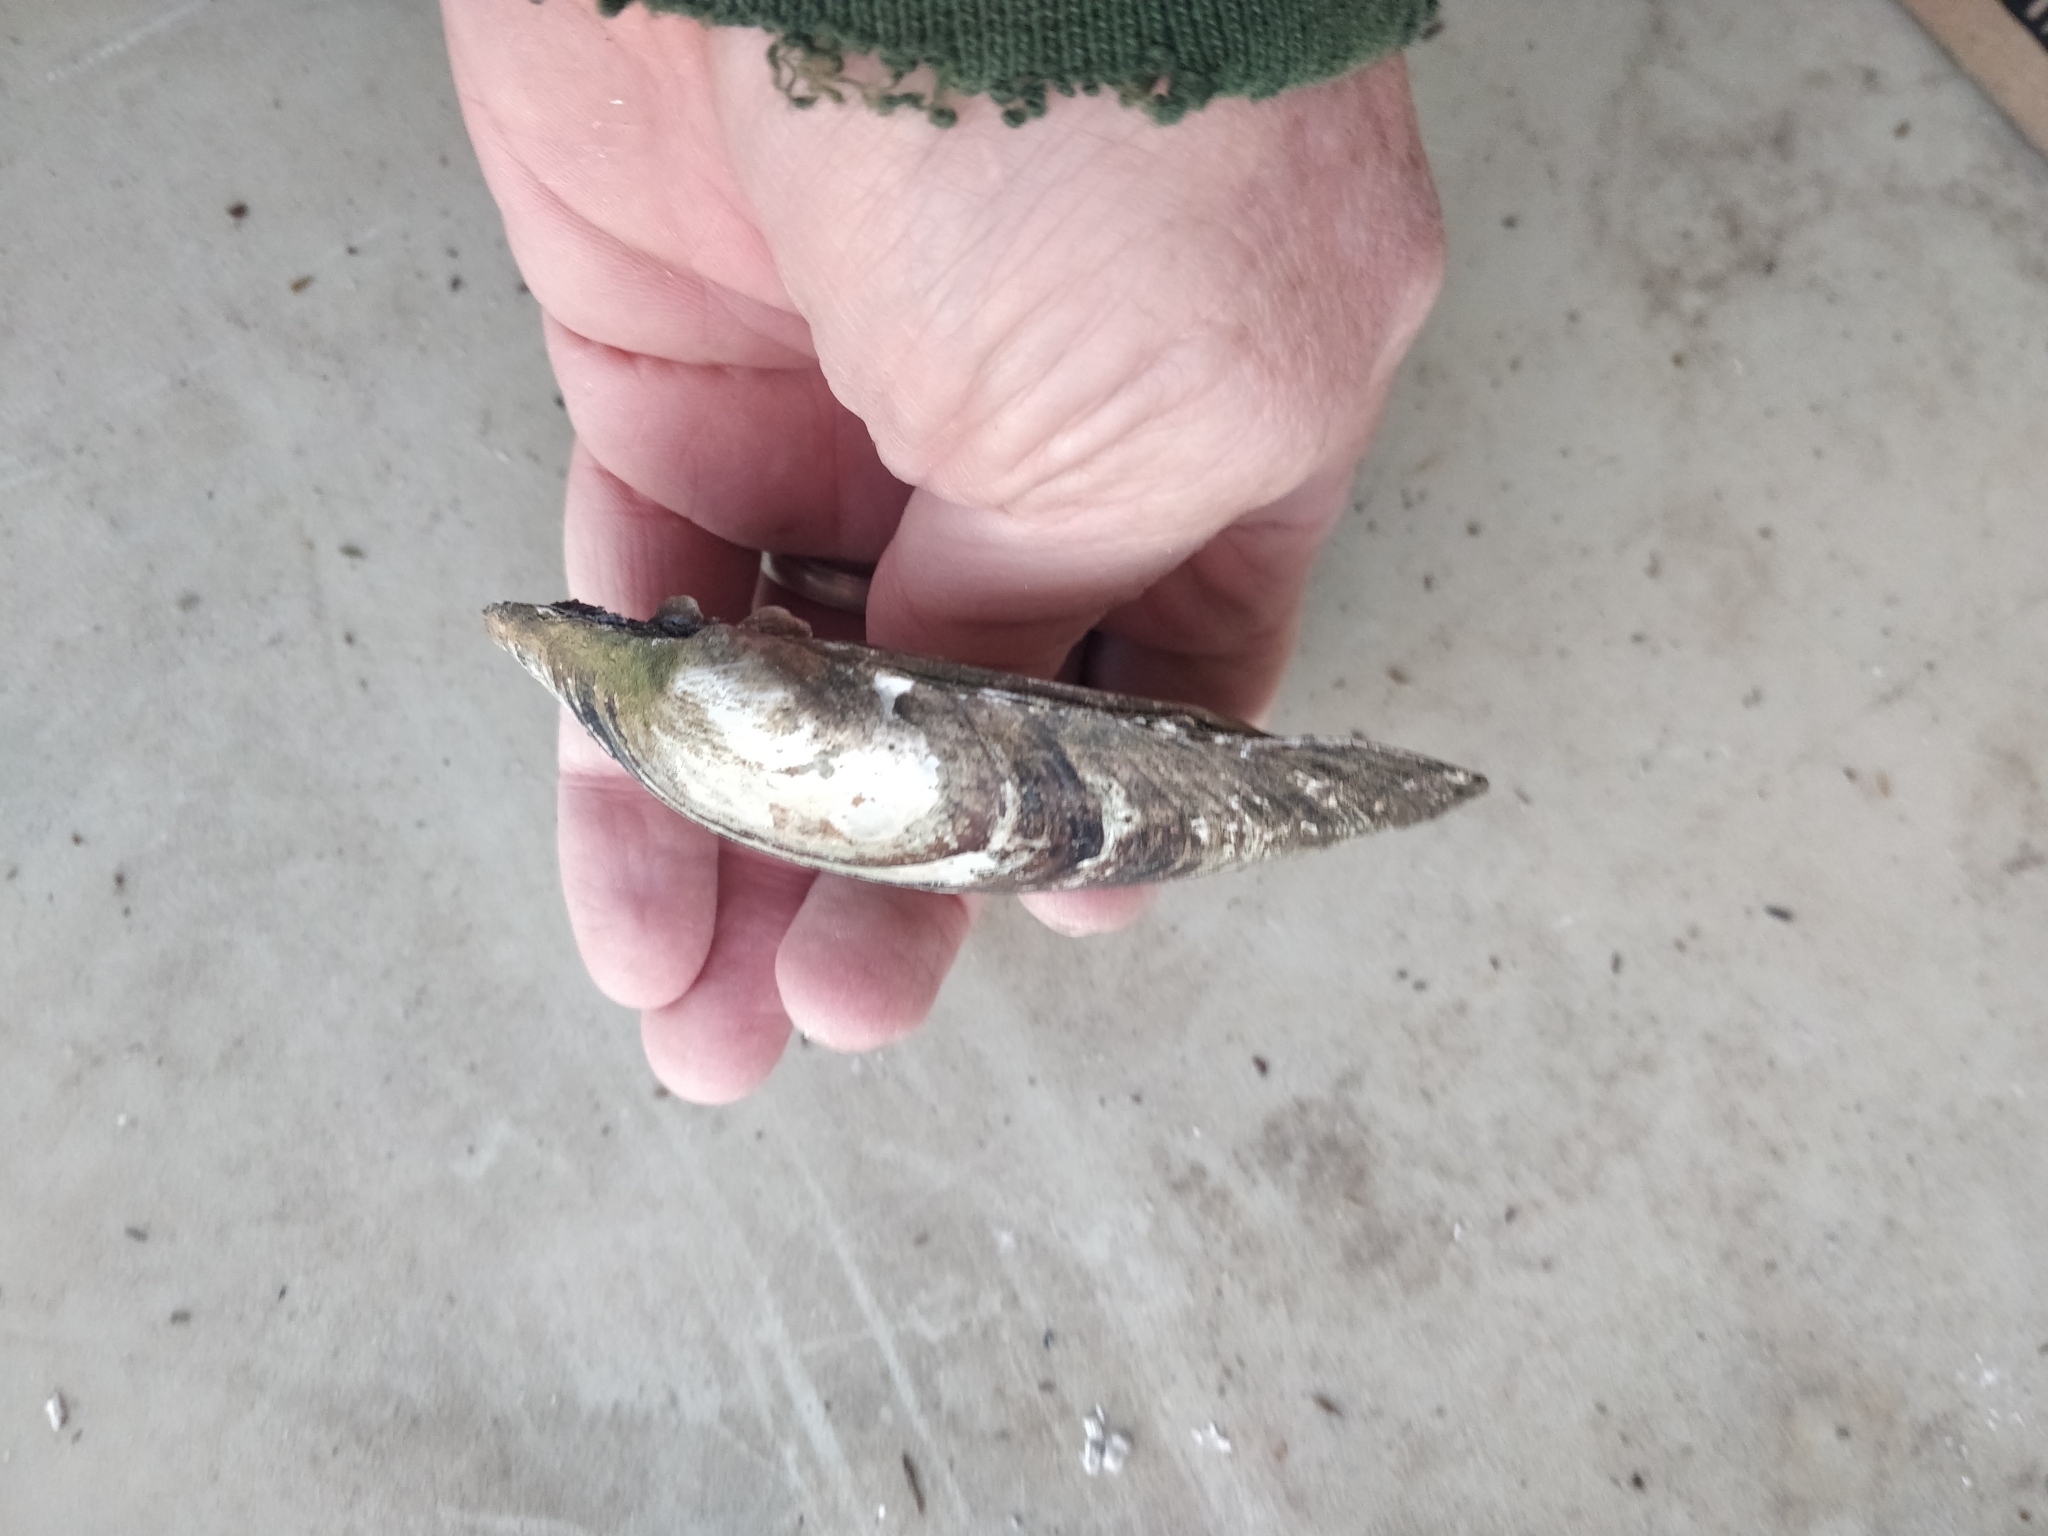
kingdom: Animalia
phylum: Mollusca
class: Bivalvia
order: Unionida
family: Unionidae
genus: Lampsilis
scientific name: Lampsilis cardium
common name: Plain pocketbook
